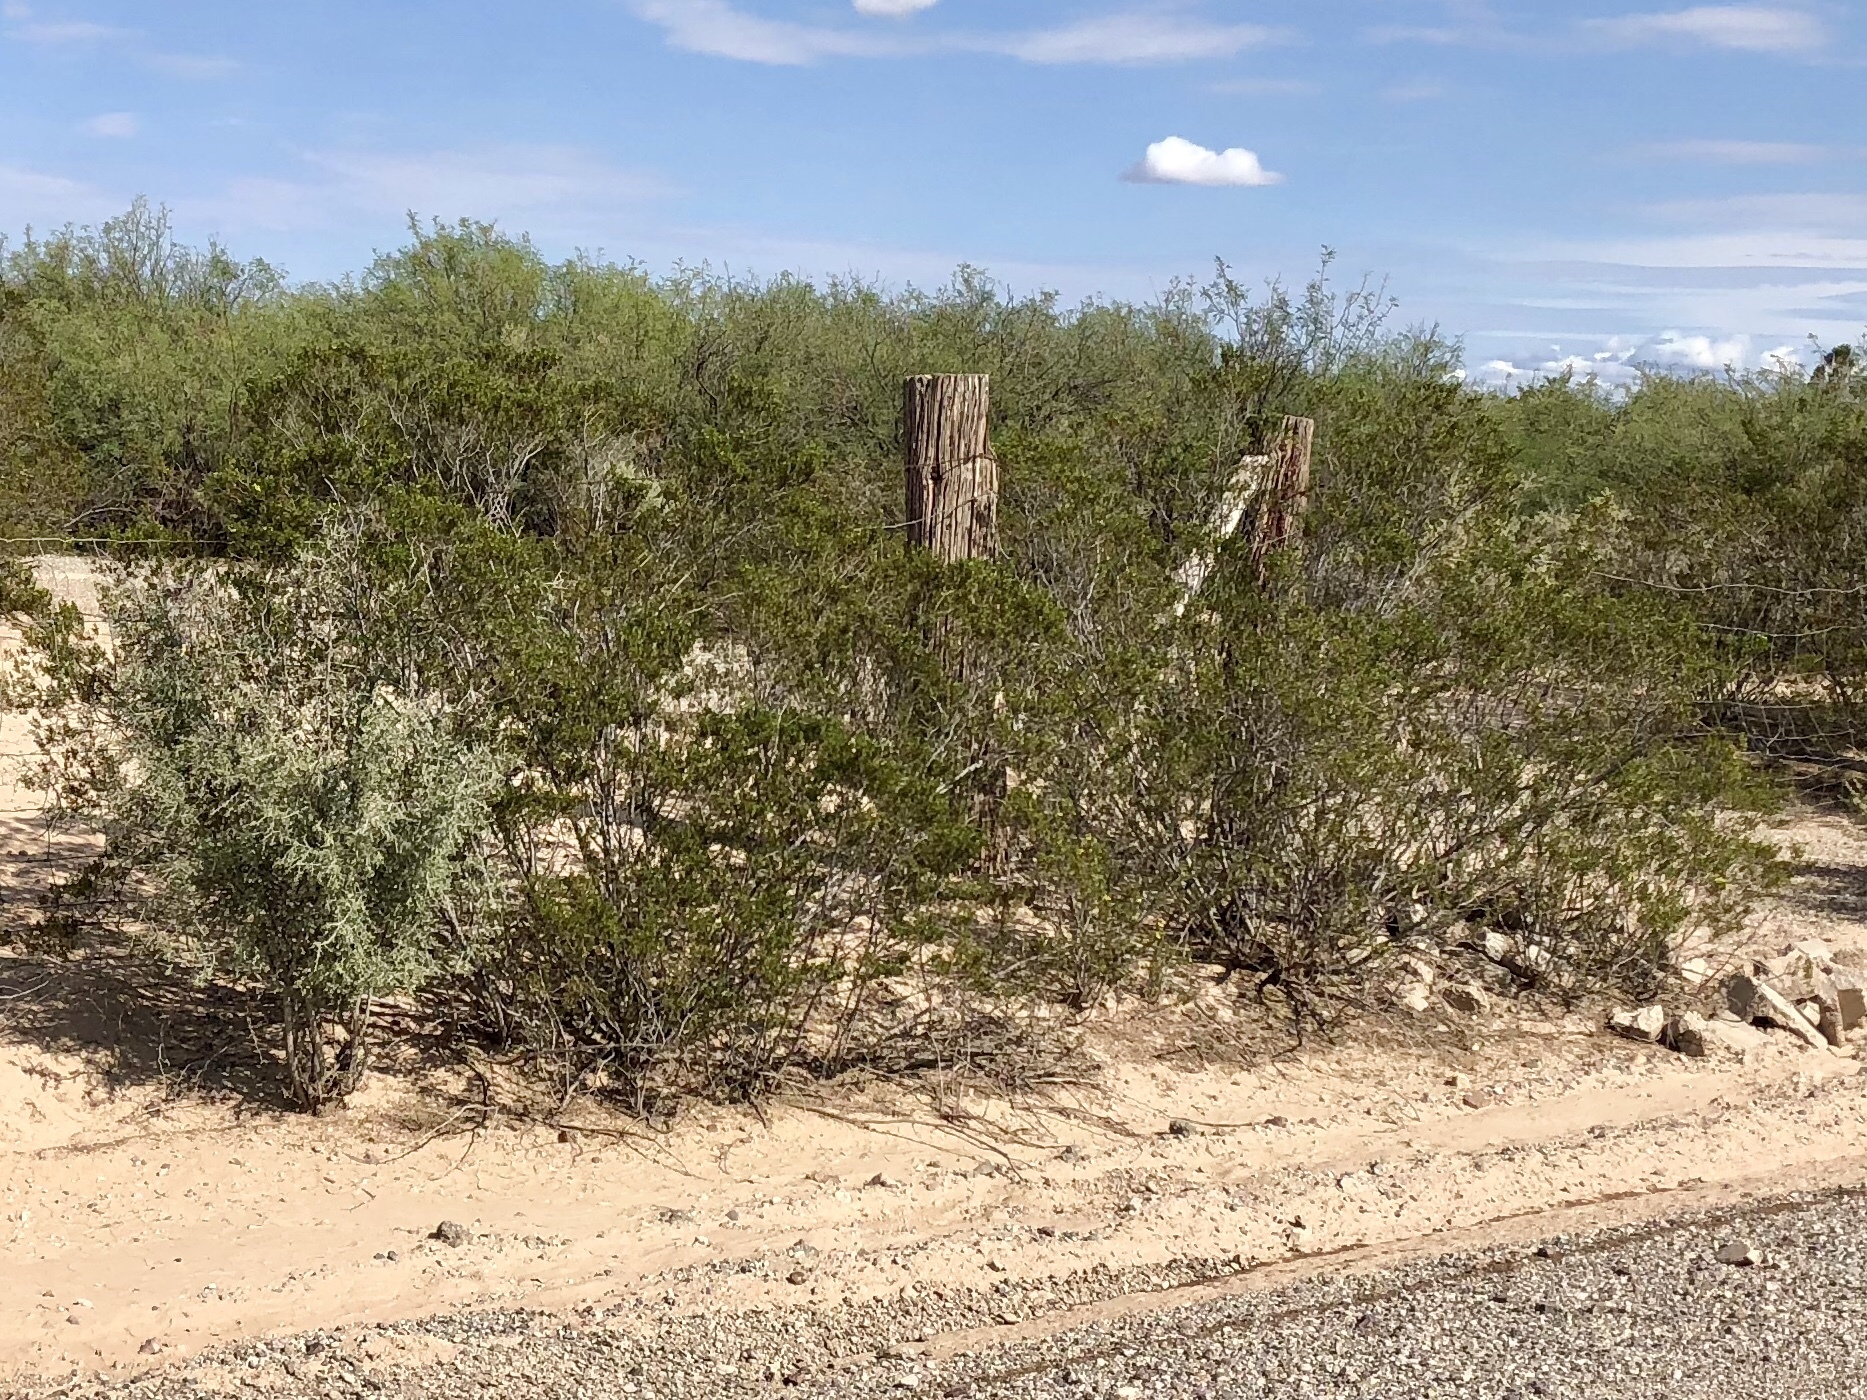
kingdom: Plantae
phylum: Tracheophyta
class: Magnoliopsida
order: Zygophyllales
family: Zygophyllaceae
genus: Larrea
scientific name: Larrea tridentata
